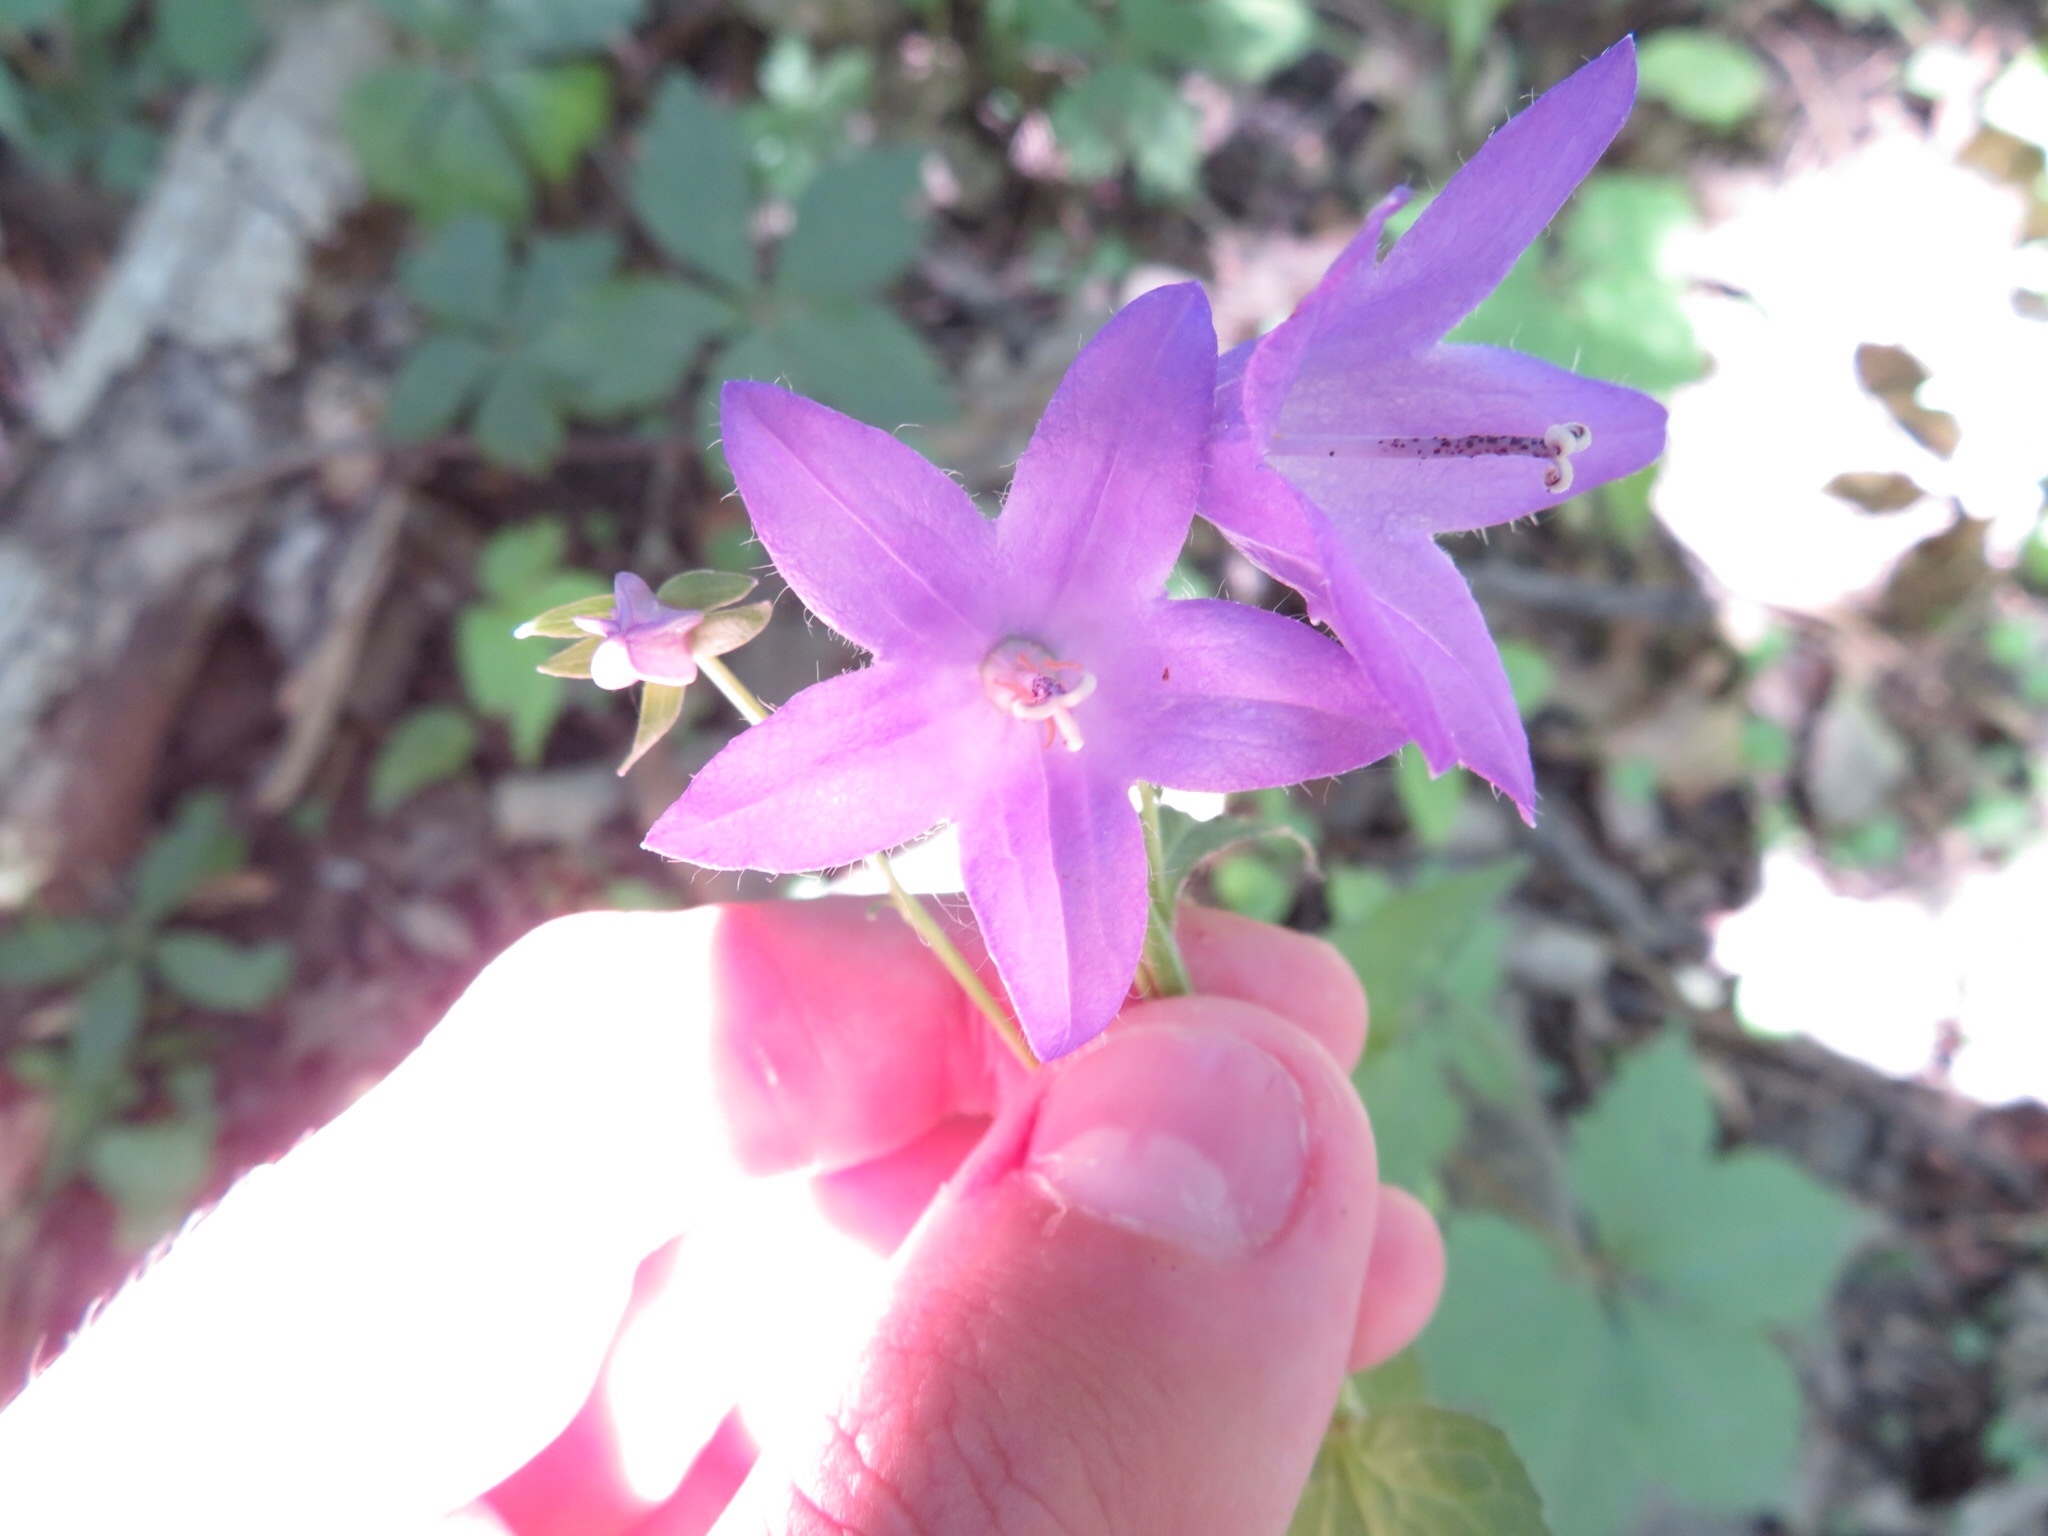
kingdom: Plantae
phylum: Tracheophyta
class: Magnoliopsida
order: Asterales
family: Campanulaceae
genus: Campanula
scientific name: Campanula rapunculoides
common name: Creeping bellflower
